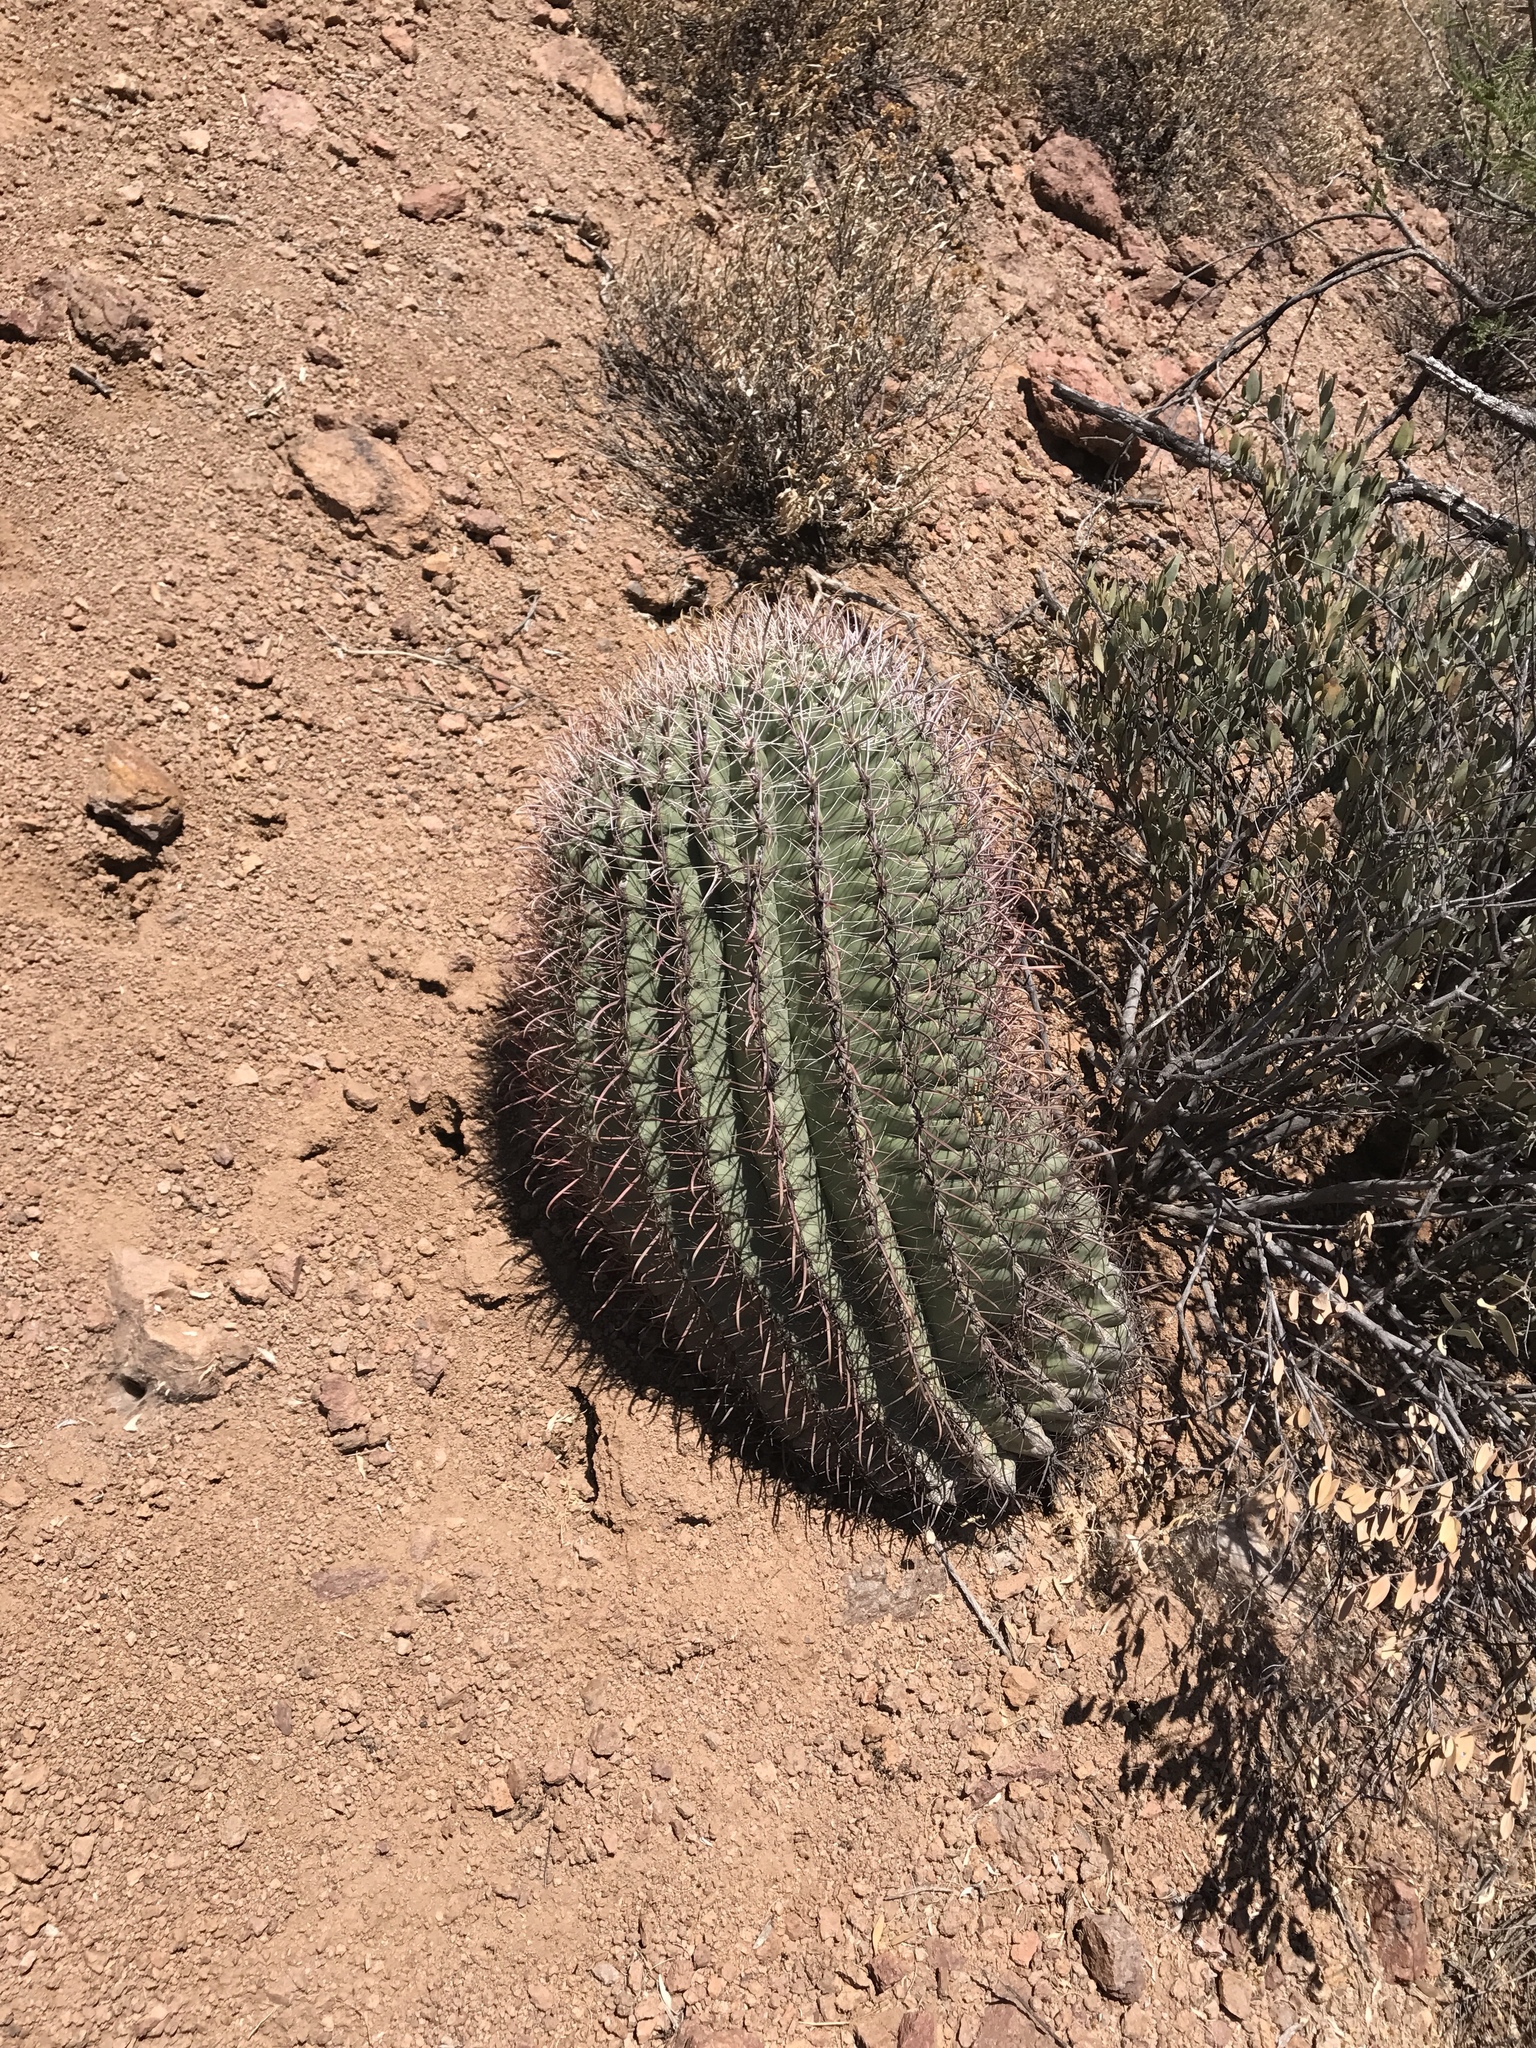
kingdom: Plantae
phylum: Tracheophyta
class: Magnoliopsida
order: Caryophyllales
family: Cactaceae
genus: Ferocactus
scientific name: Ferocactus wislizeni
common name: Candy barrel cactus
